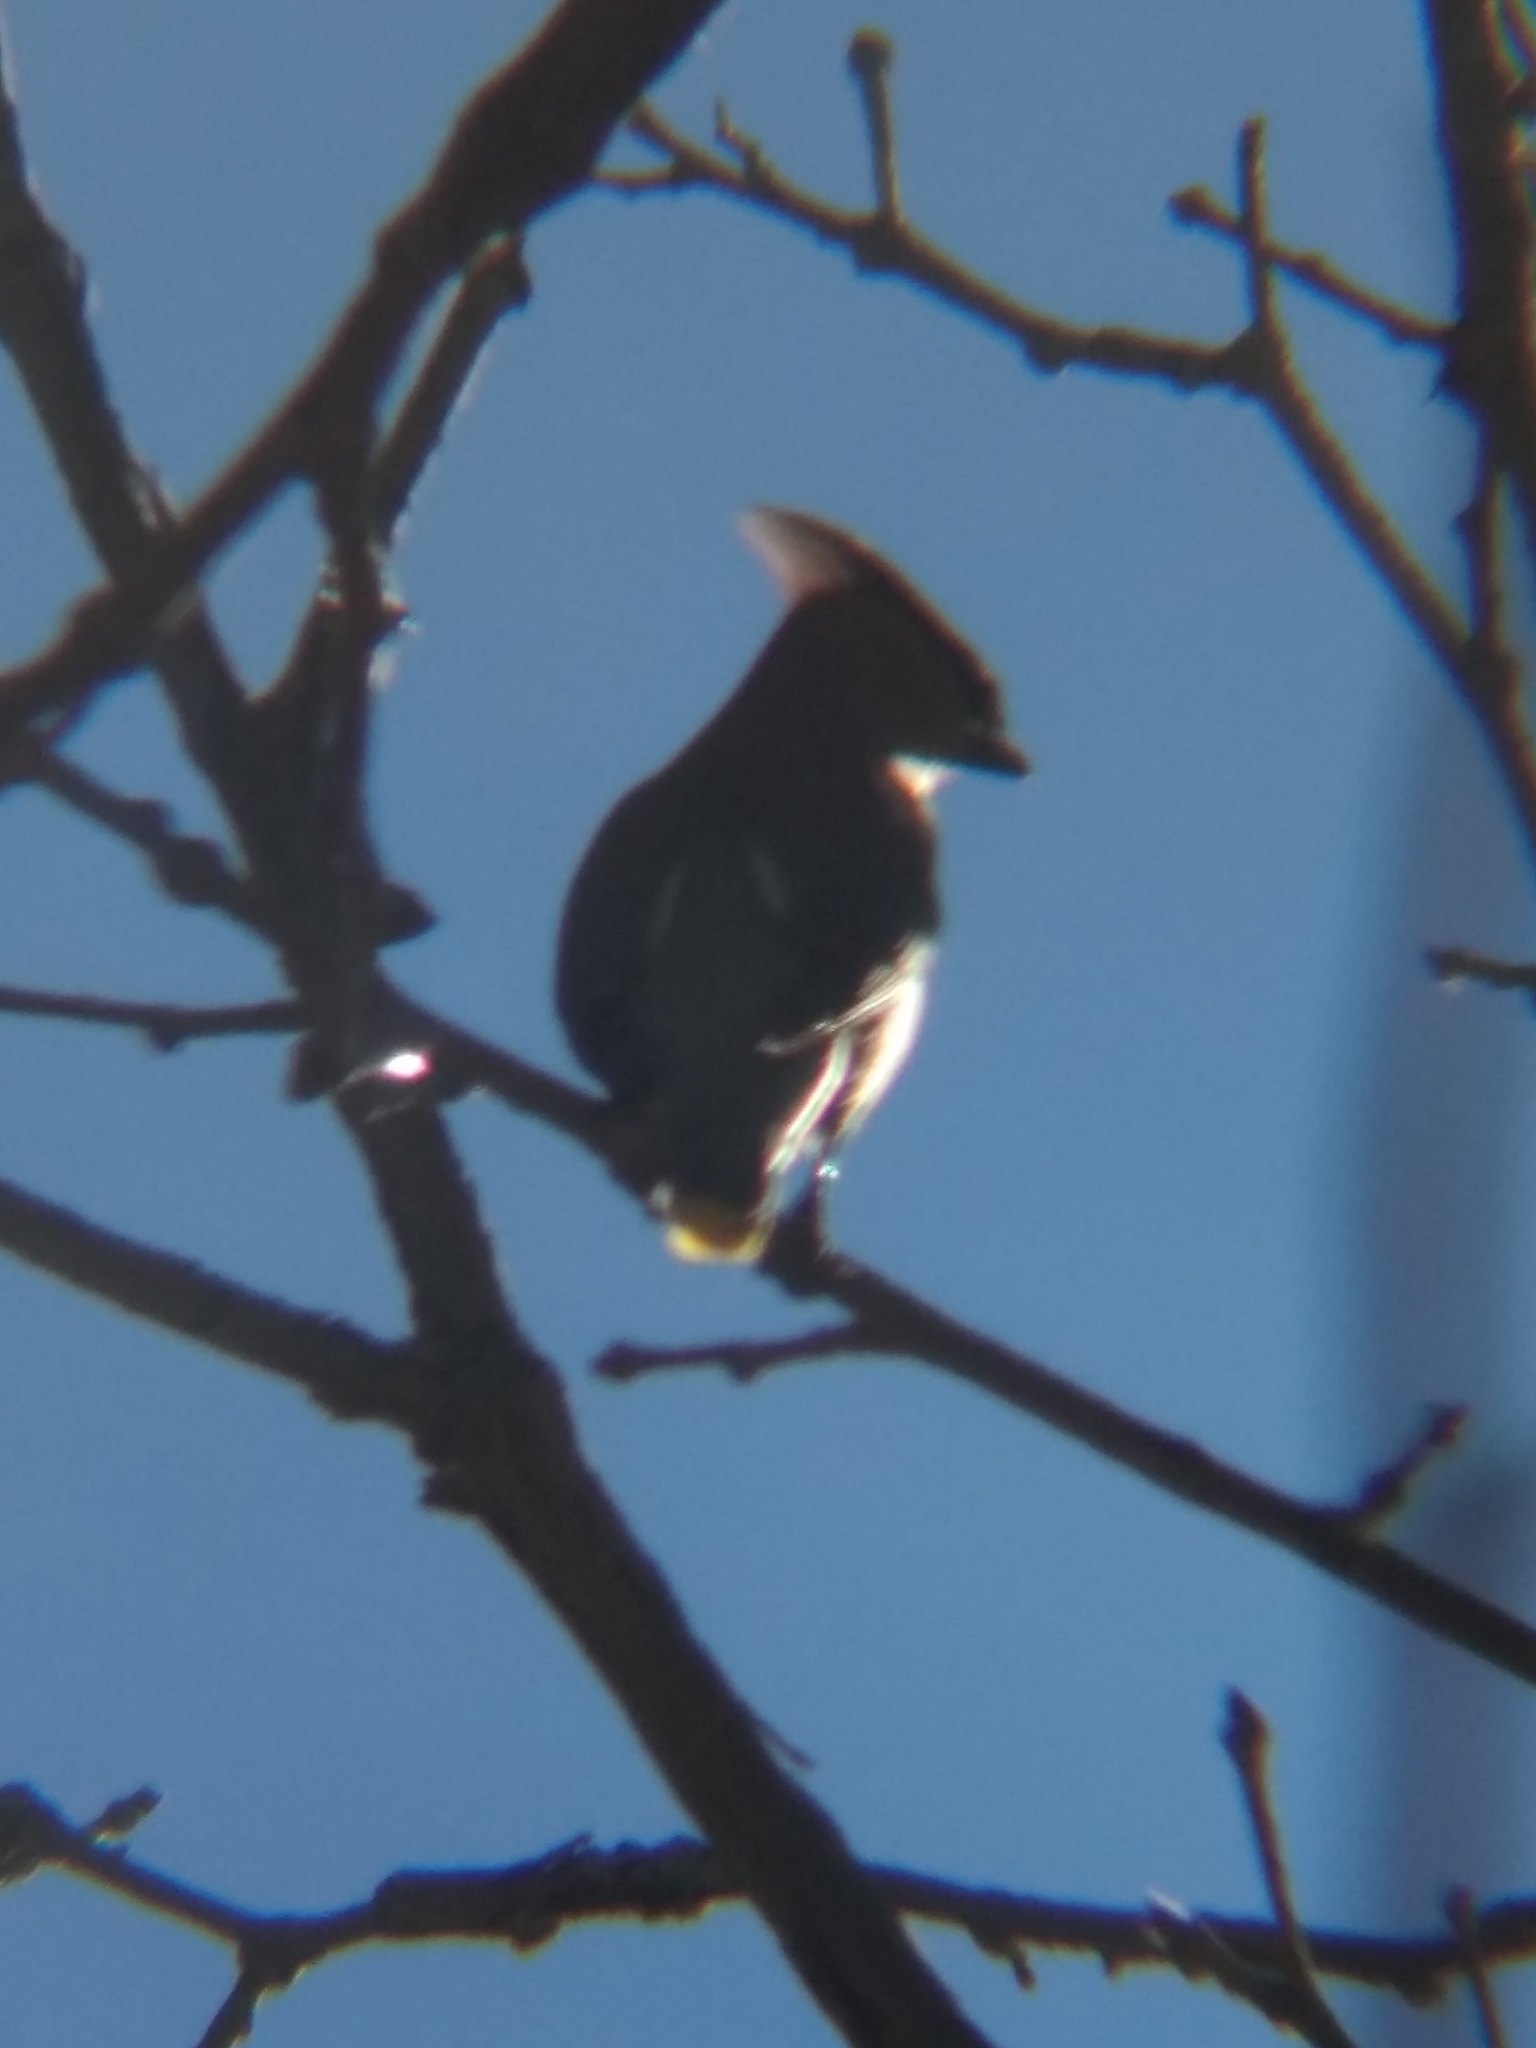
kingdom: Animalia
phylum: Chordata
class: Aves
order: Passeriformes
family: Bombycillidae
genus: Bombycilla
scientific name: Bombycilla cedrorum
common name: Cedar waxwing
